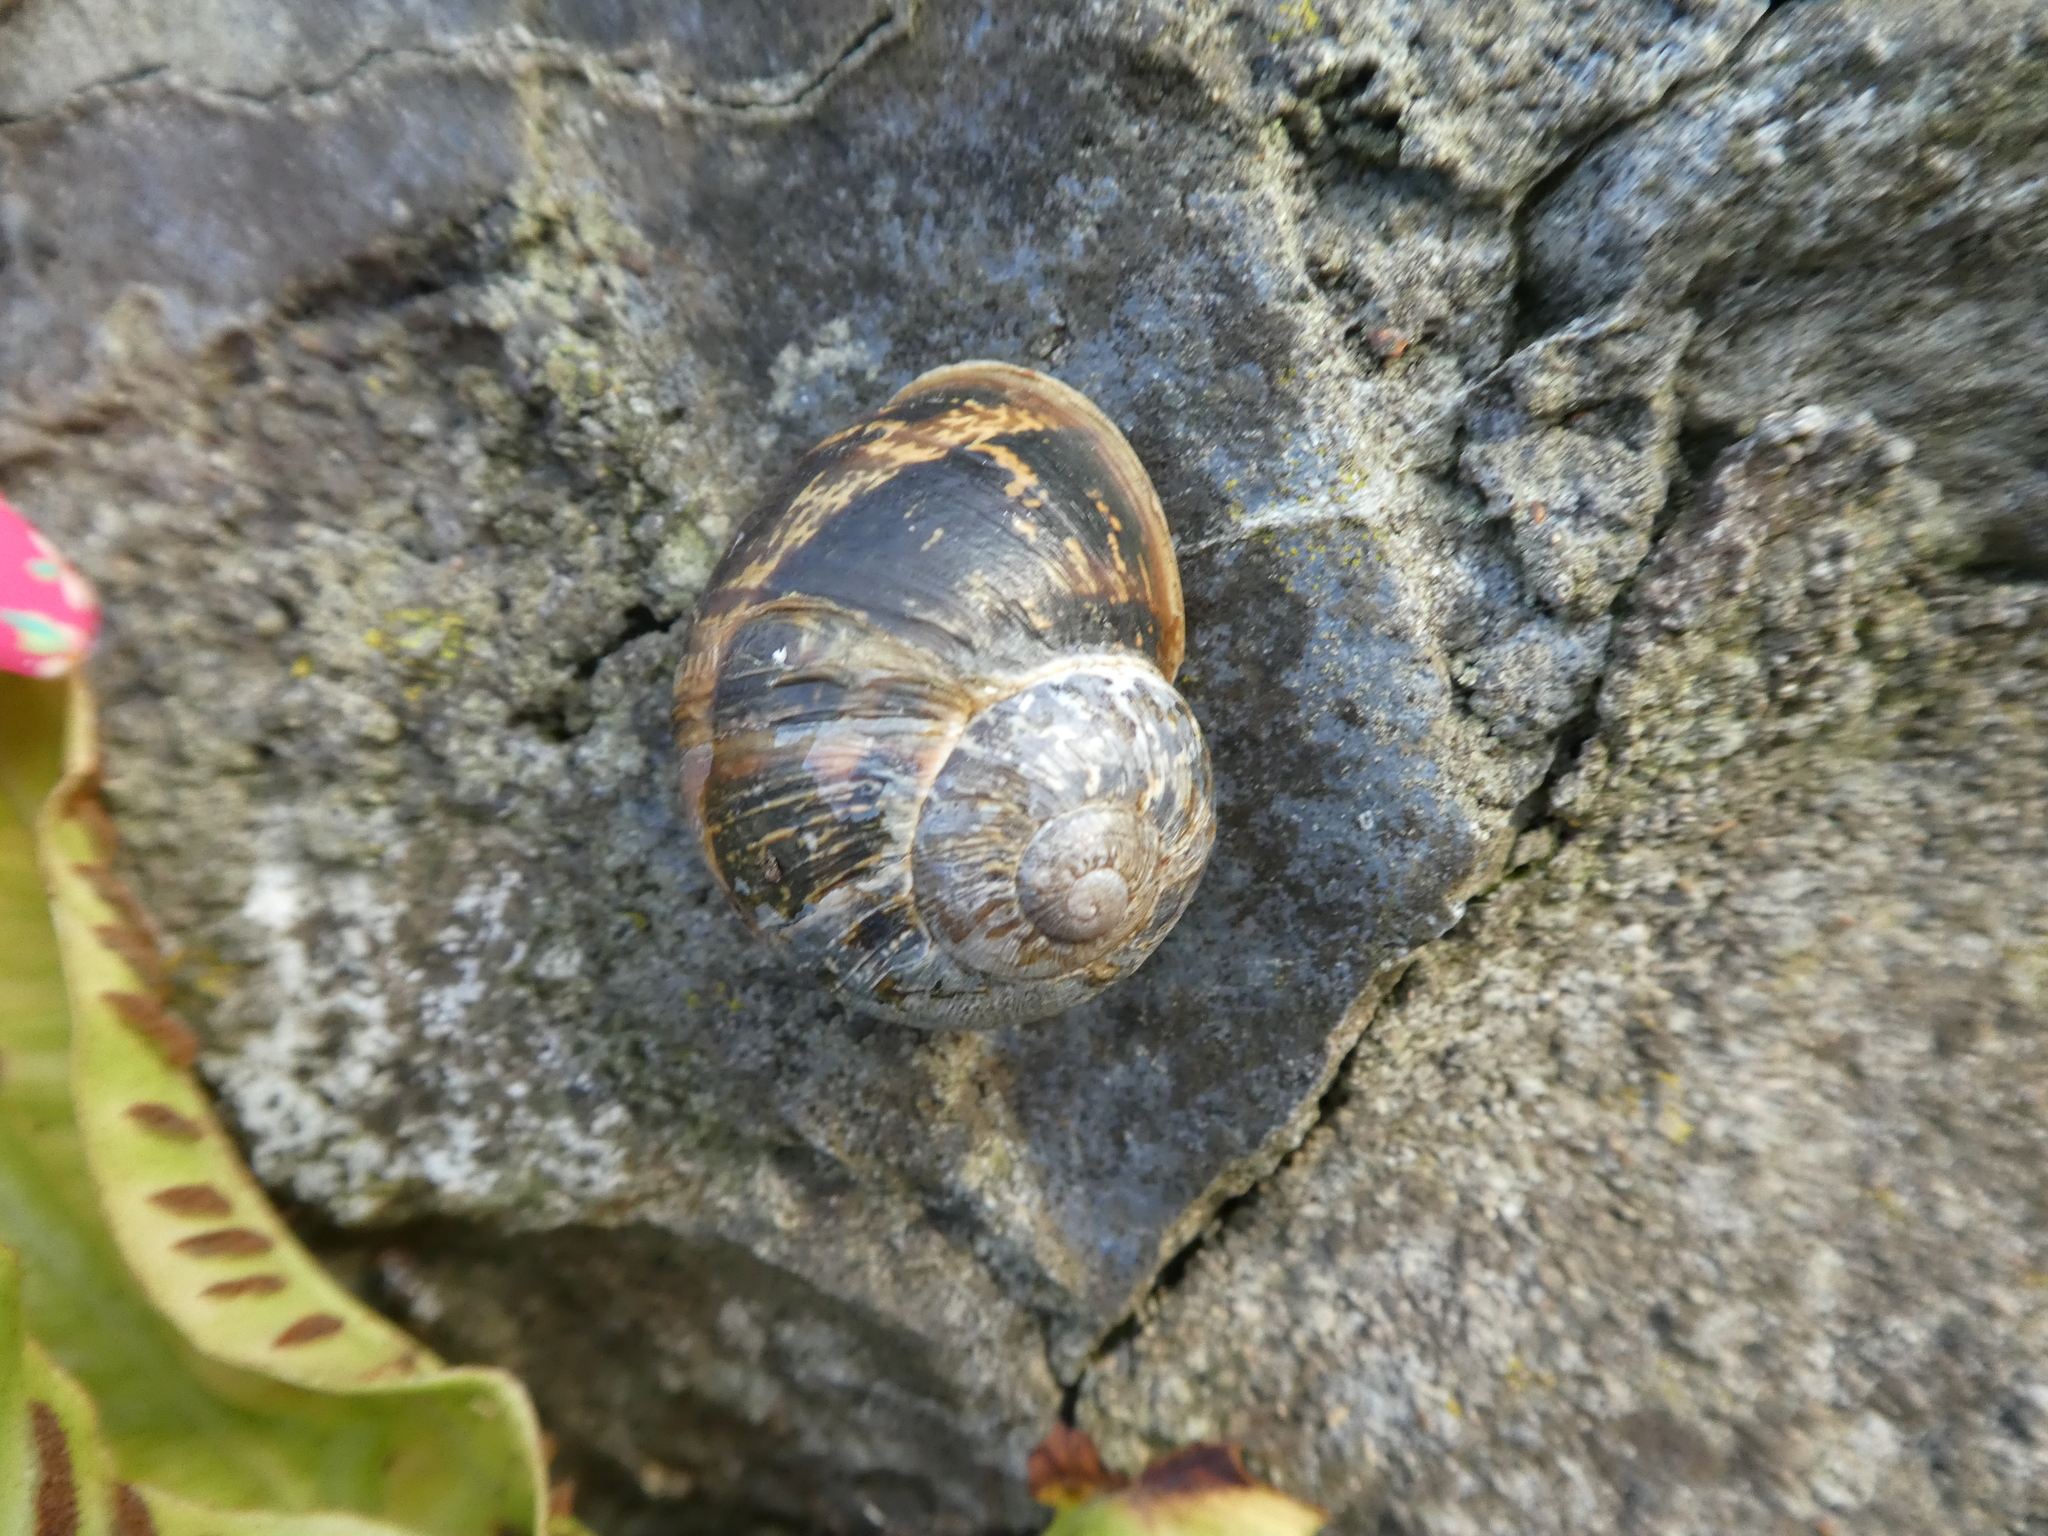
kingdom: Animalia
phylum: Mollusca
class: Gastropoda
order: Stylommatophora
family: Helicidae
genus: Cornu
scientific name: Cornu aspersum
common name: Brown garden snail
